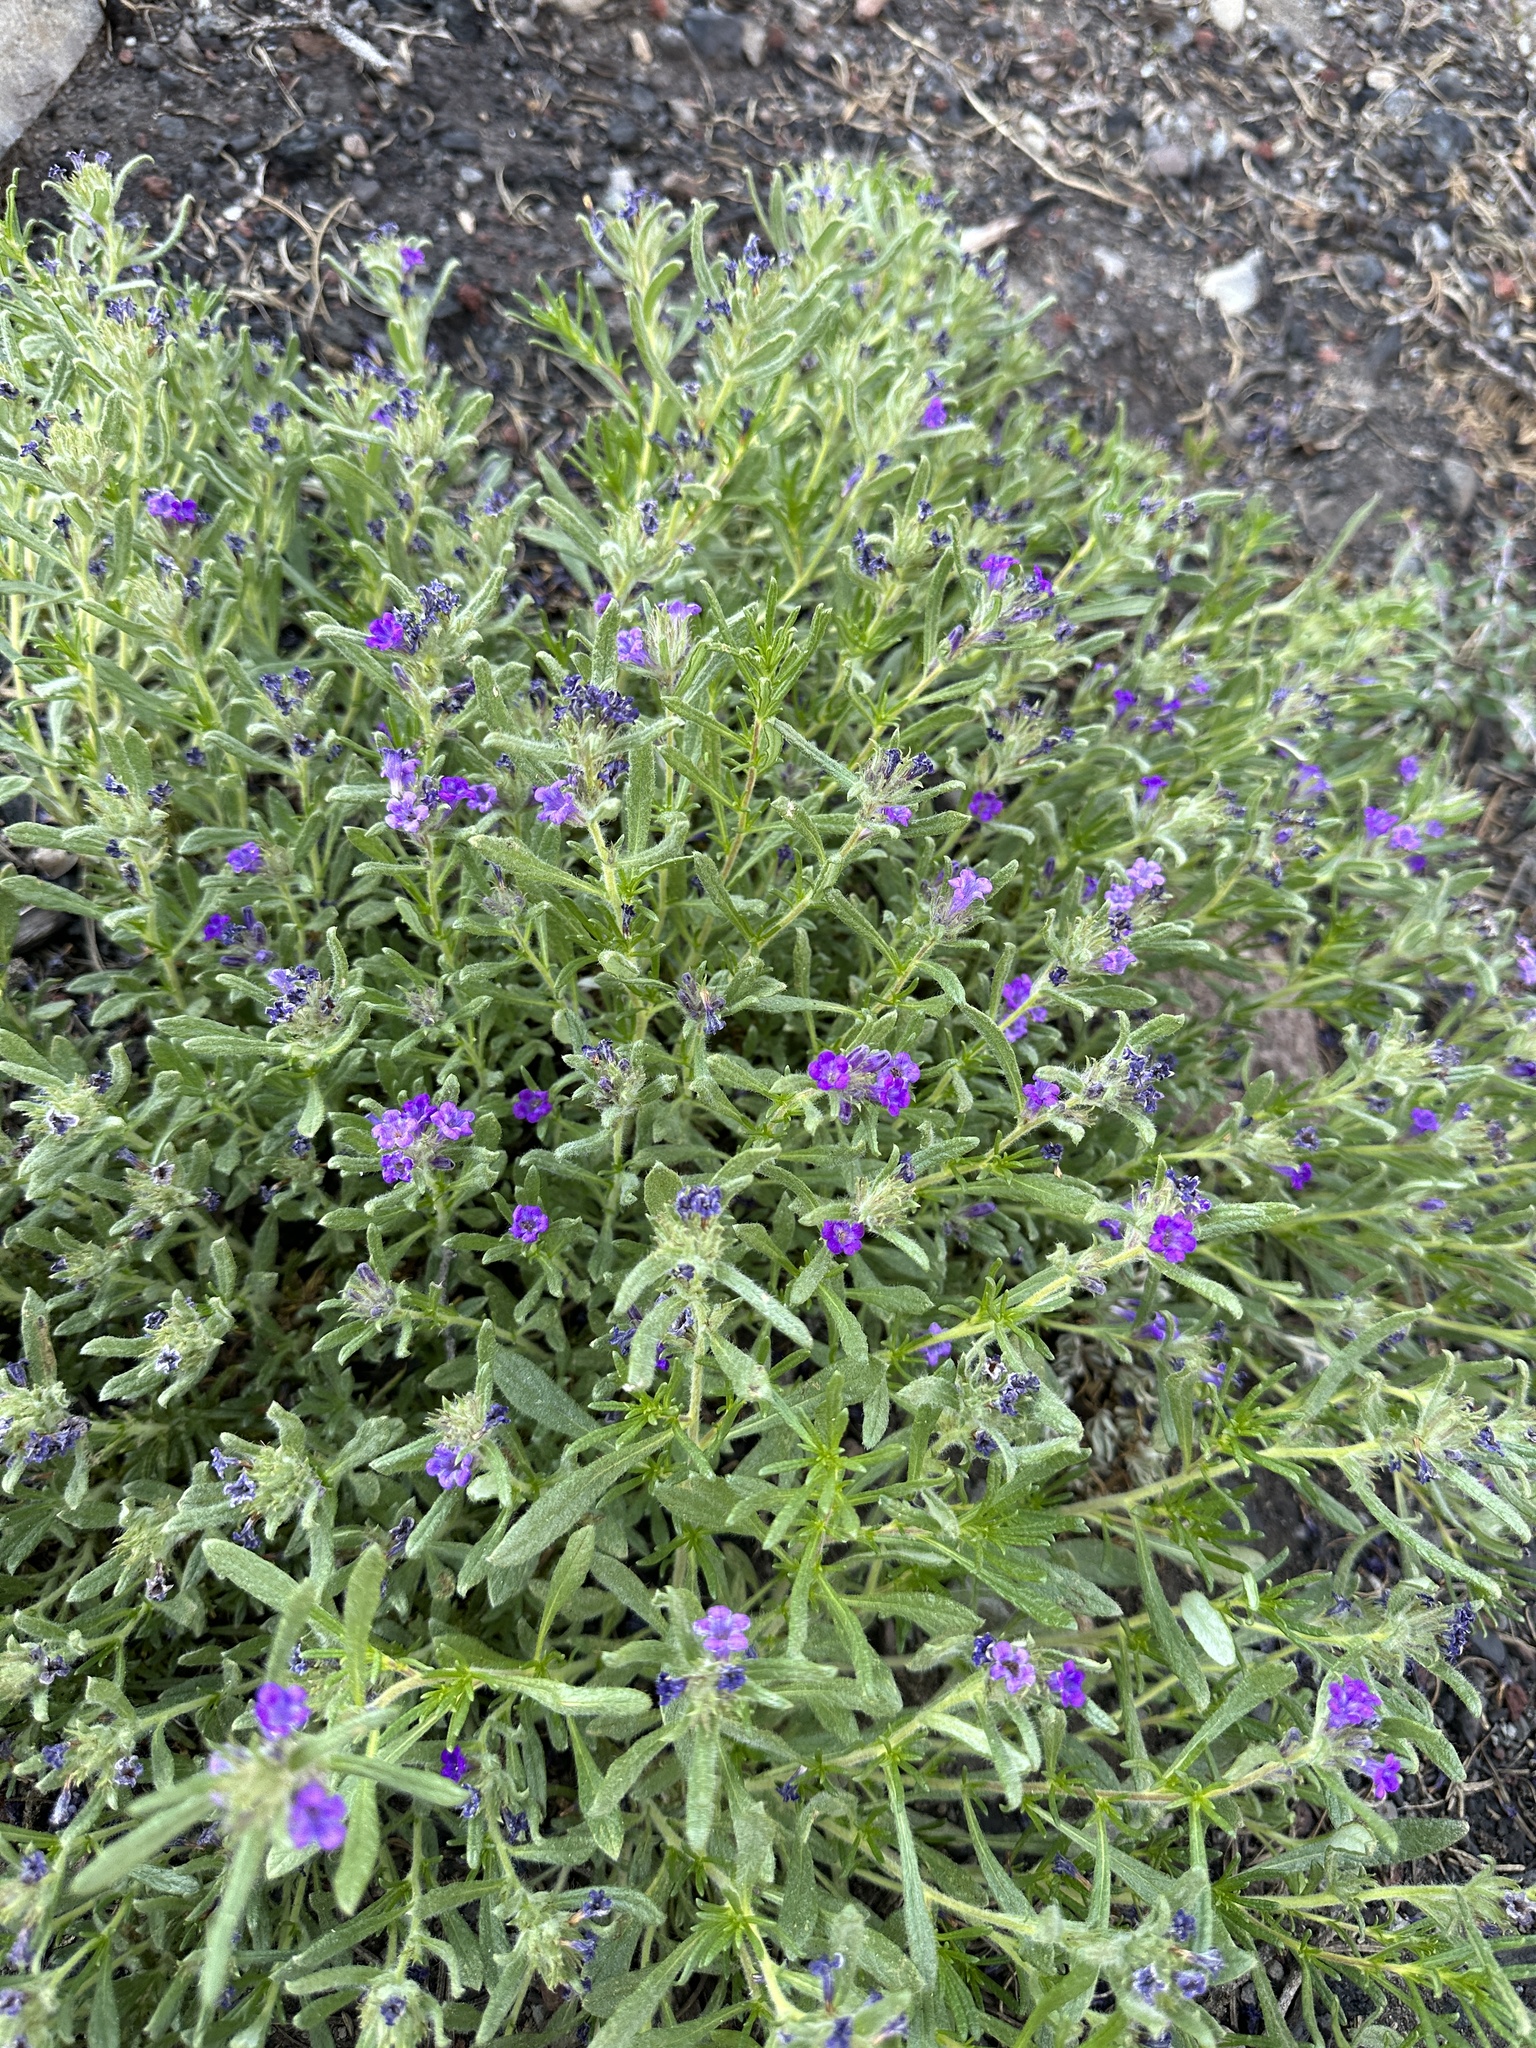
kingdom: Plantae
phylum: Tracheophyta
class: Magnoliopsida
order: Boraginales
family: Namaceae
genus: Nama
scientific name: Nama lobbii
